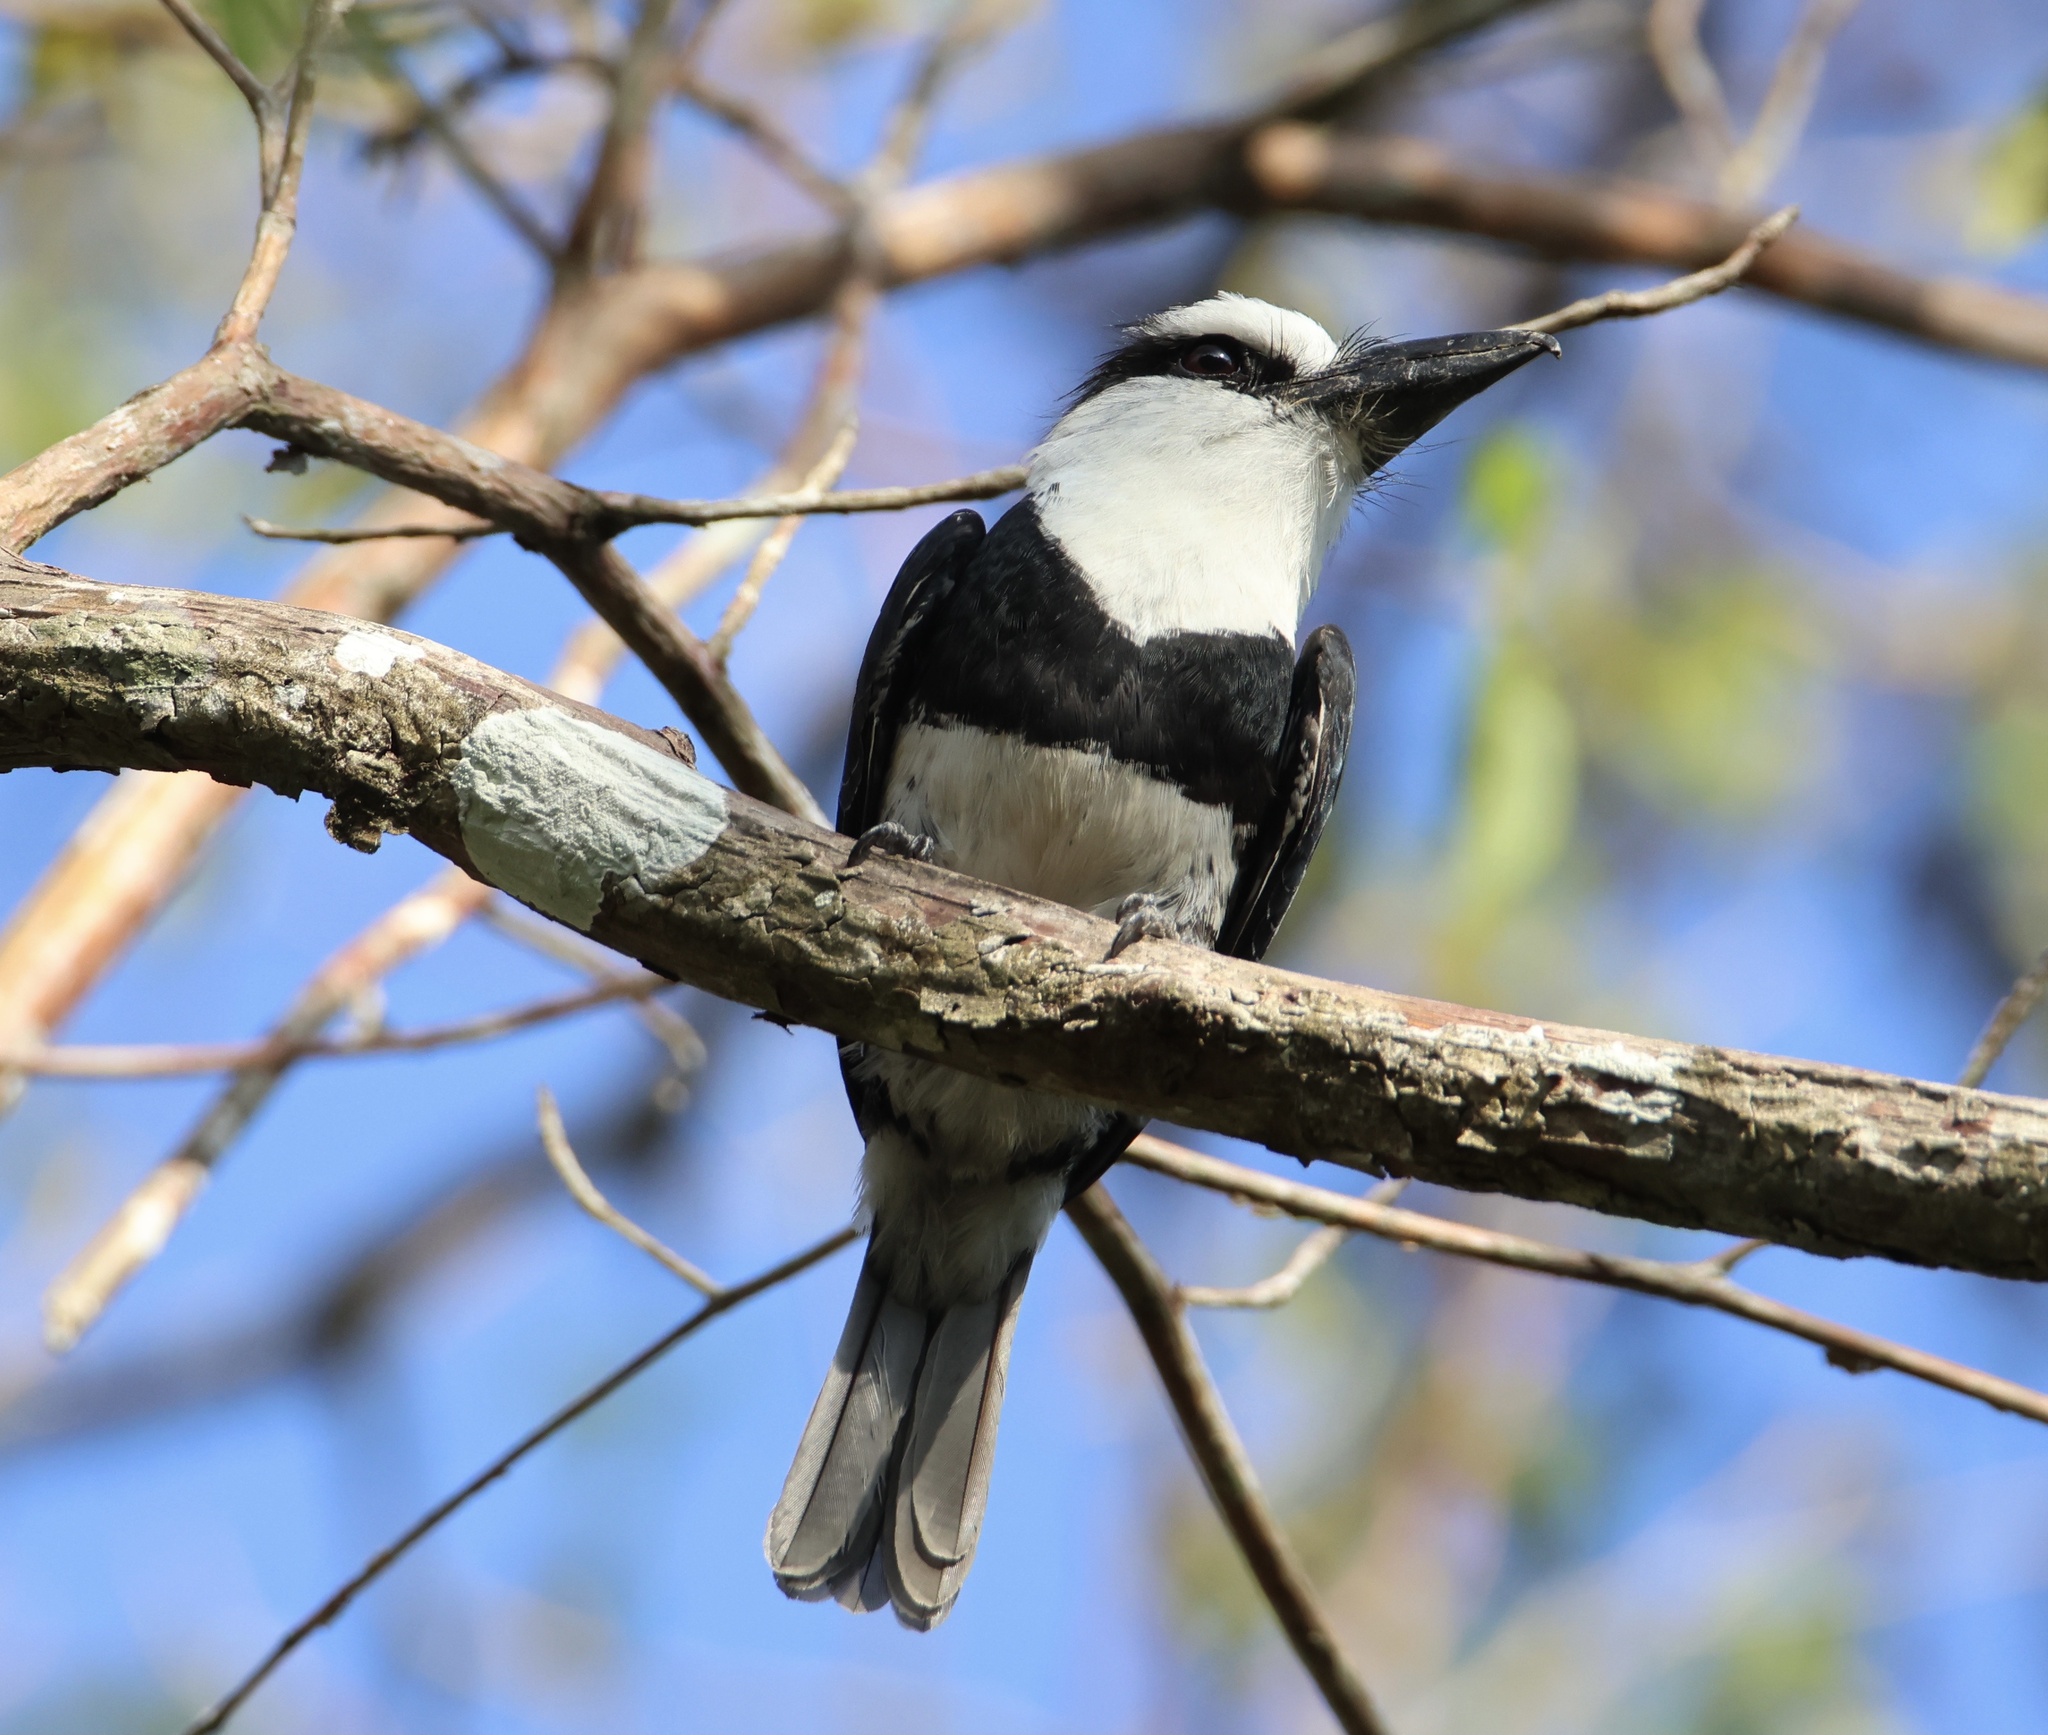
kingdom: Animalia
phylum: Chordata
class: Aves
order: Piciformes
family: Bucconidae
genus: Notharchus
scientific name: Notharchus hyperrhynchus
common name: White-necked puffbird
